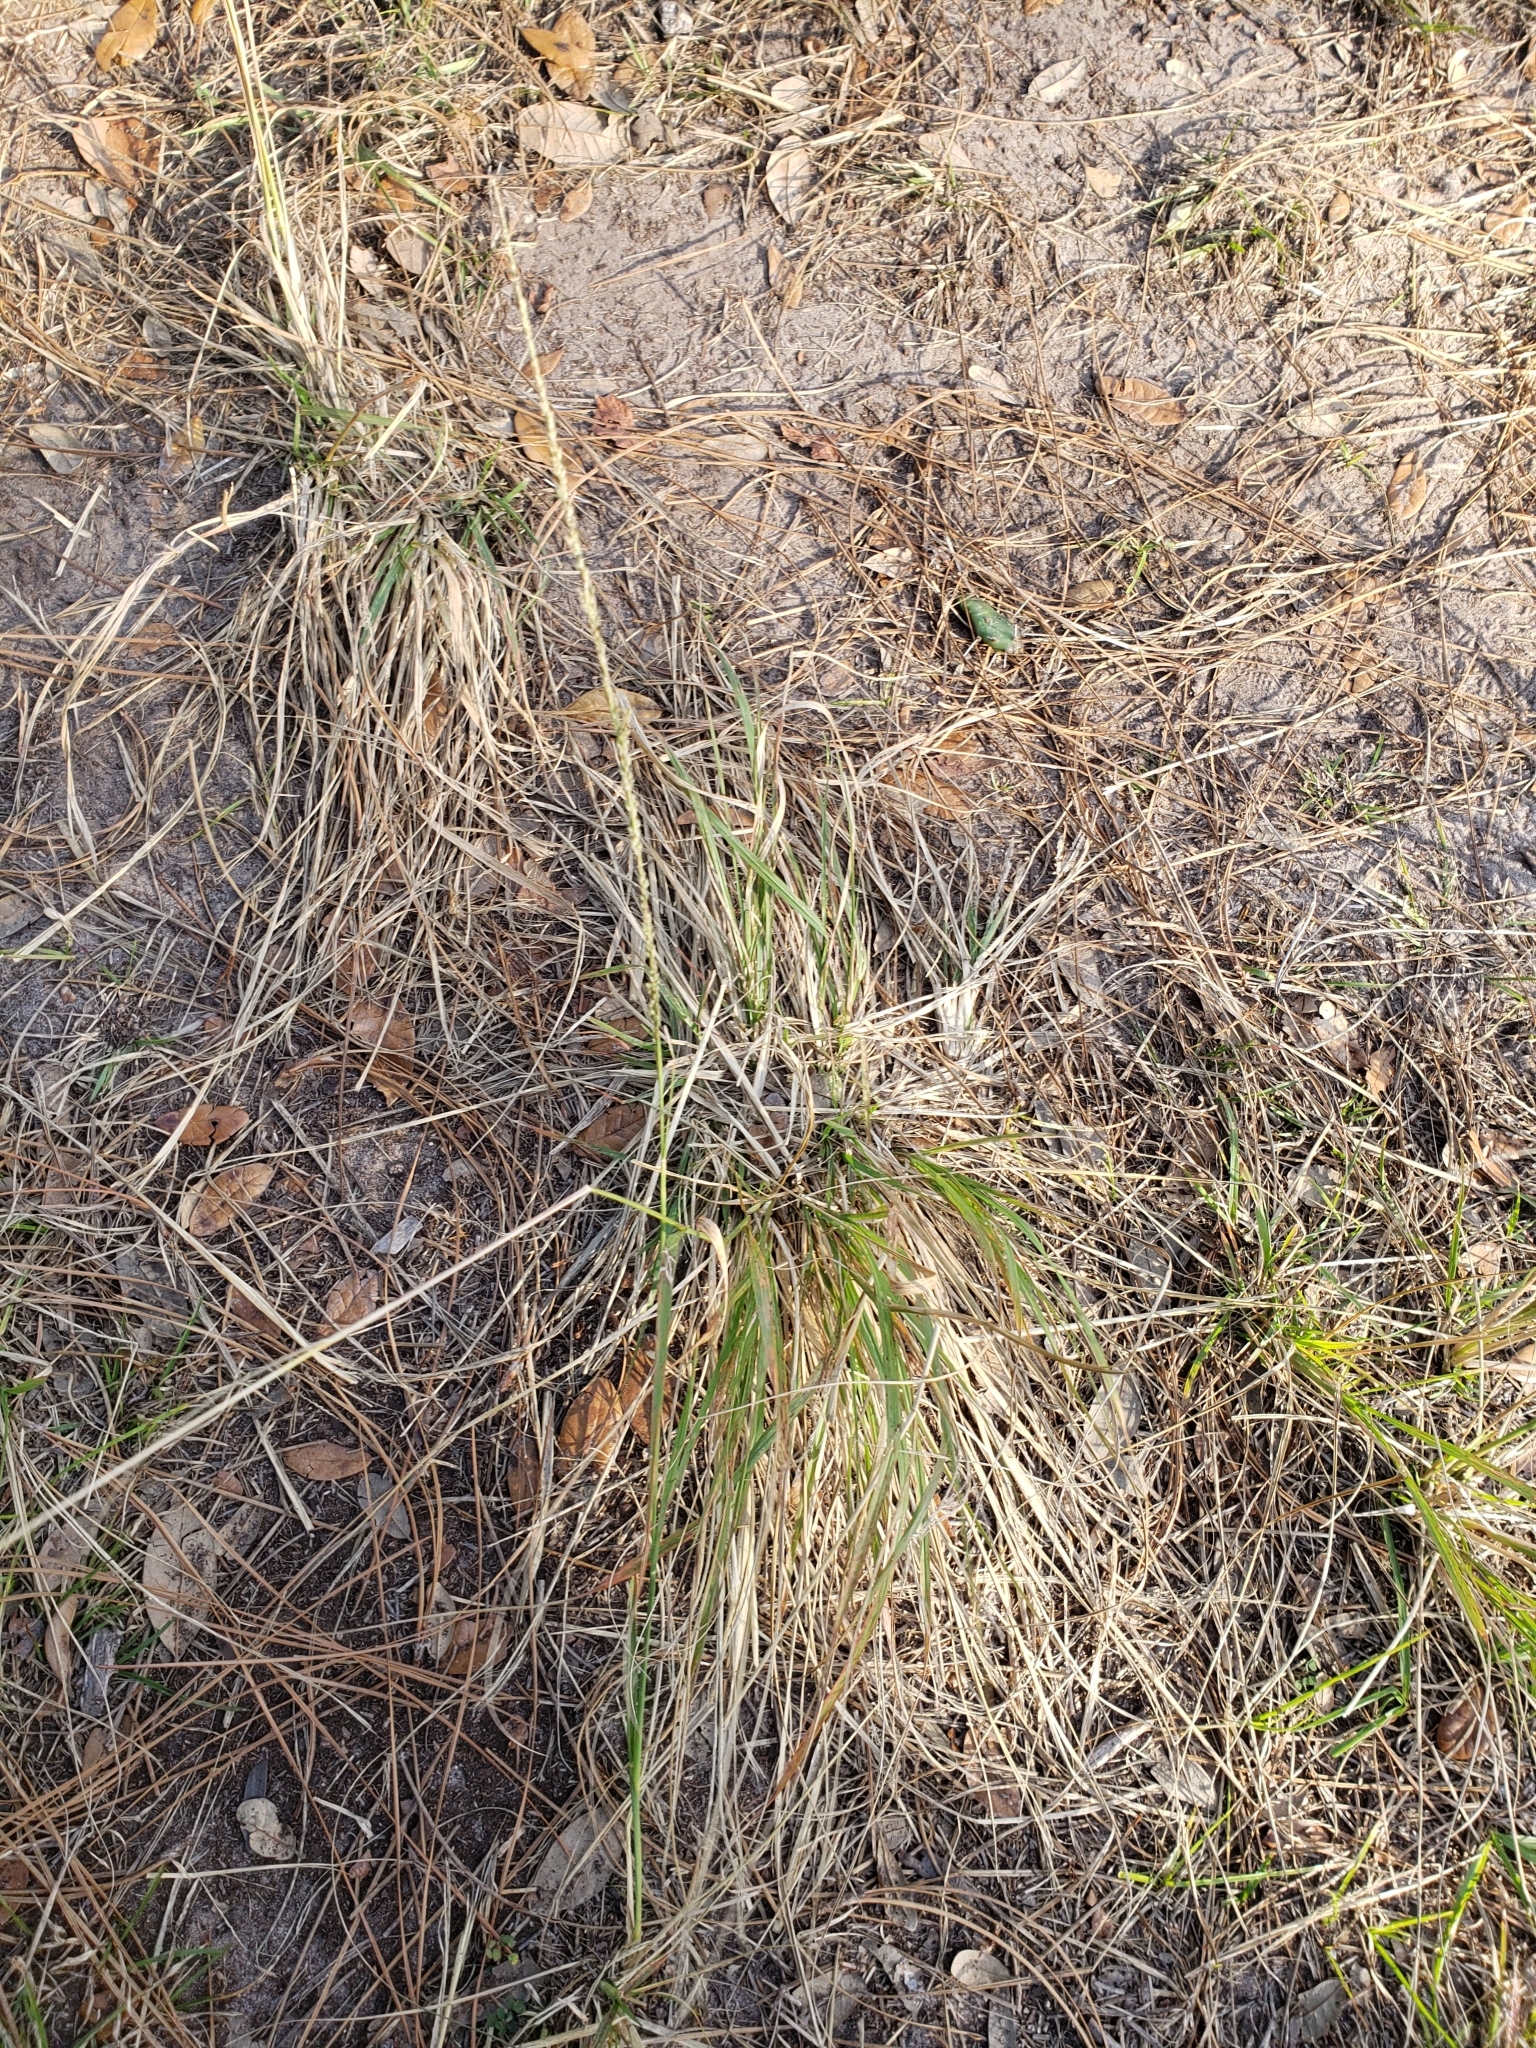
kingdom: Plantae
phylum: Tracheophyta
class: Liliopsida
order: Poales
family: Poaceae
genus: Sporobolus
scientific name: Sporobolus indicus
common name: Smut grass
